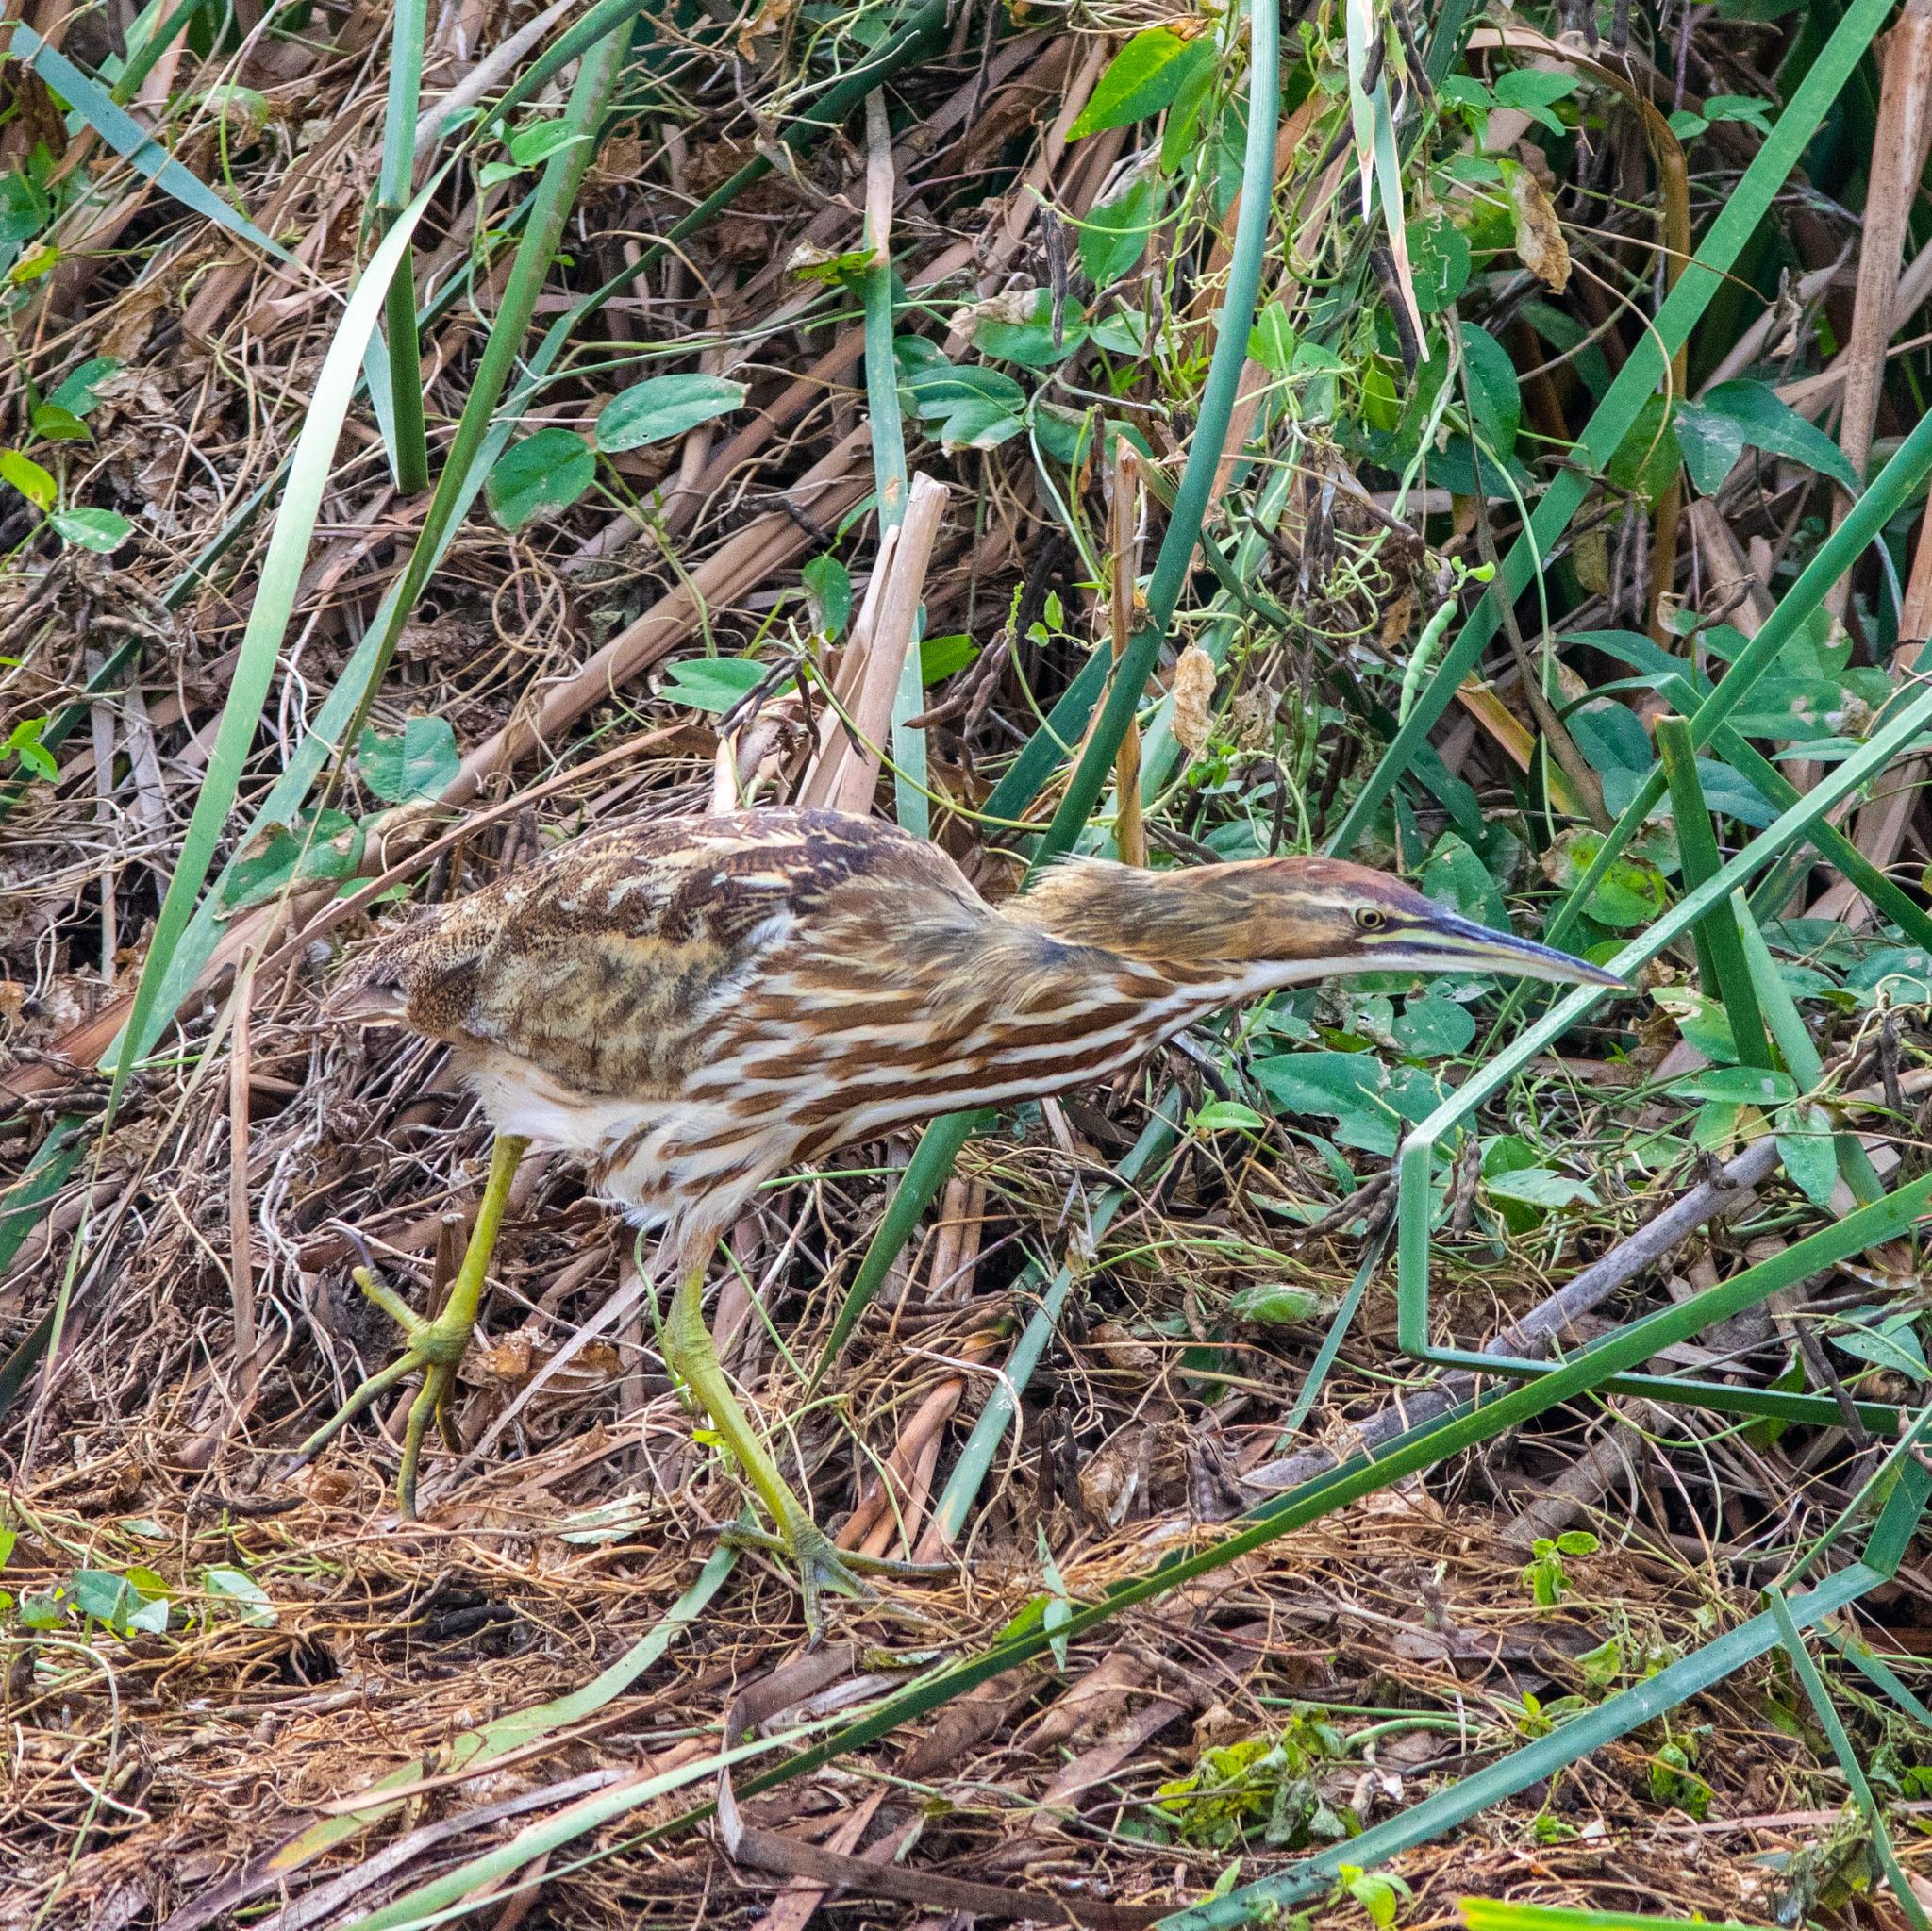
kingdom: Animalia
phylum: Chordata
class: Aves
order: Pelecaniformes
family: Ardeidae
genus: Botaurus
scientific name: Botaurus lentiginosus
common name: American bittern
